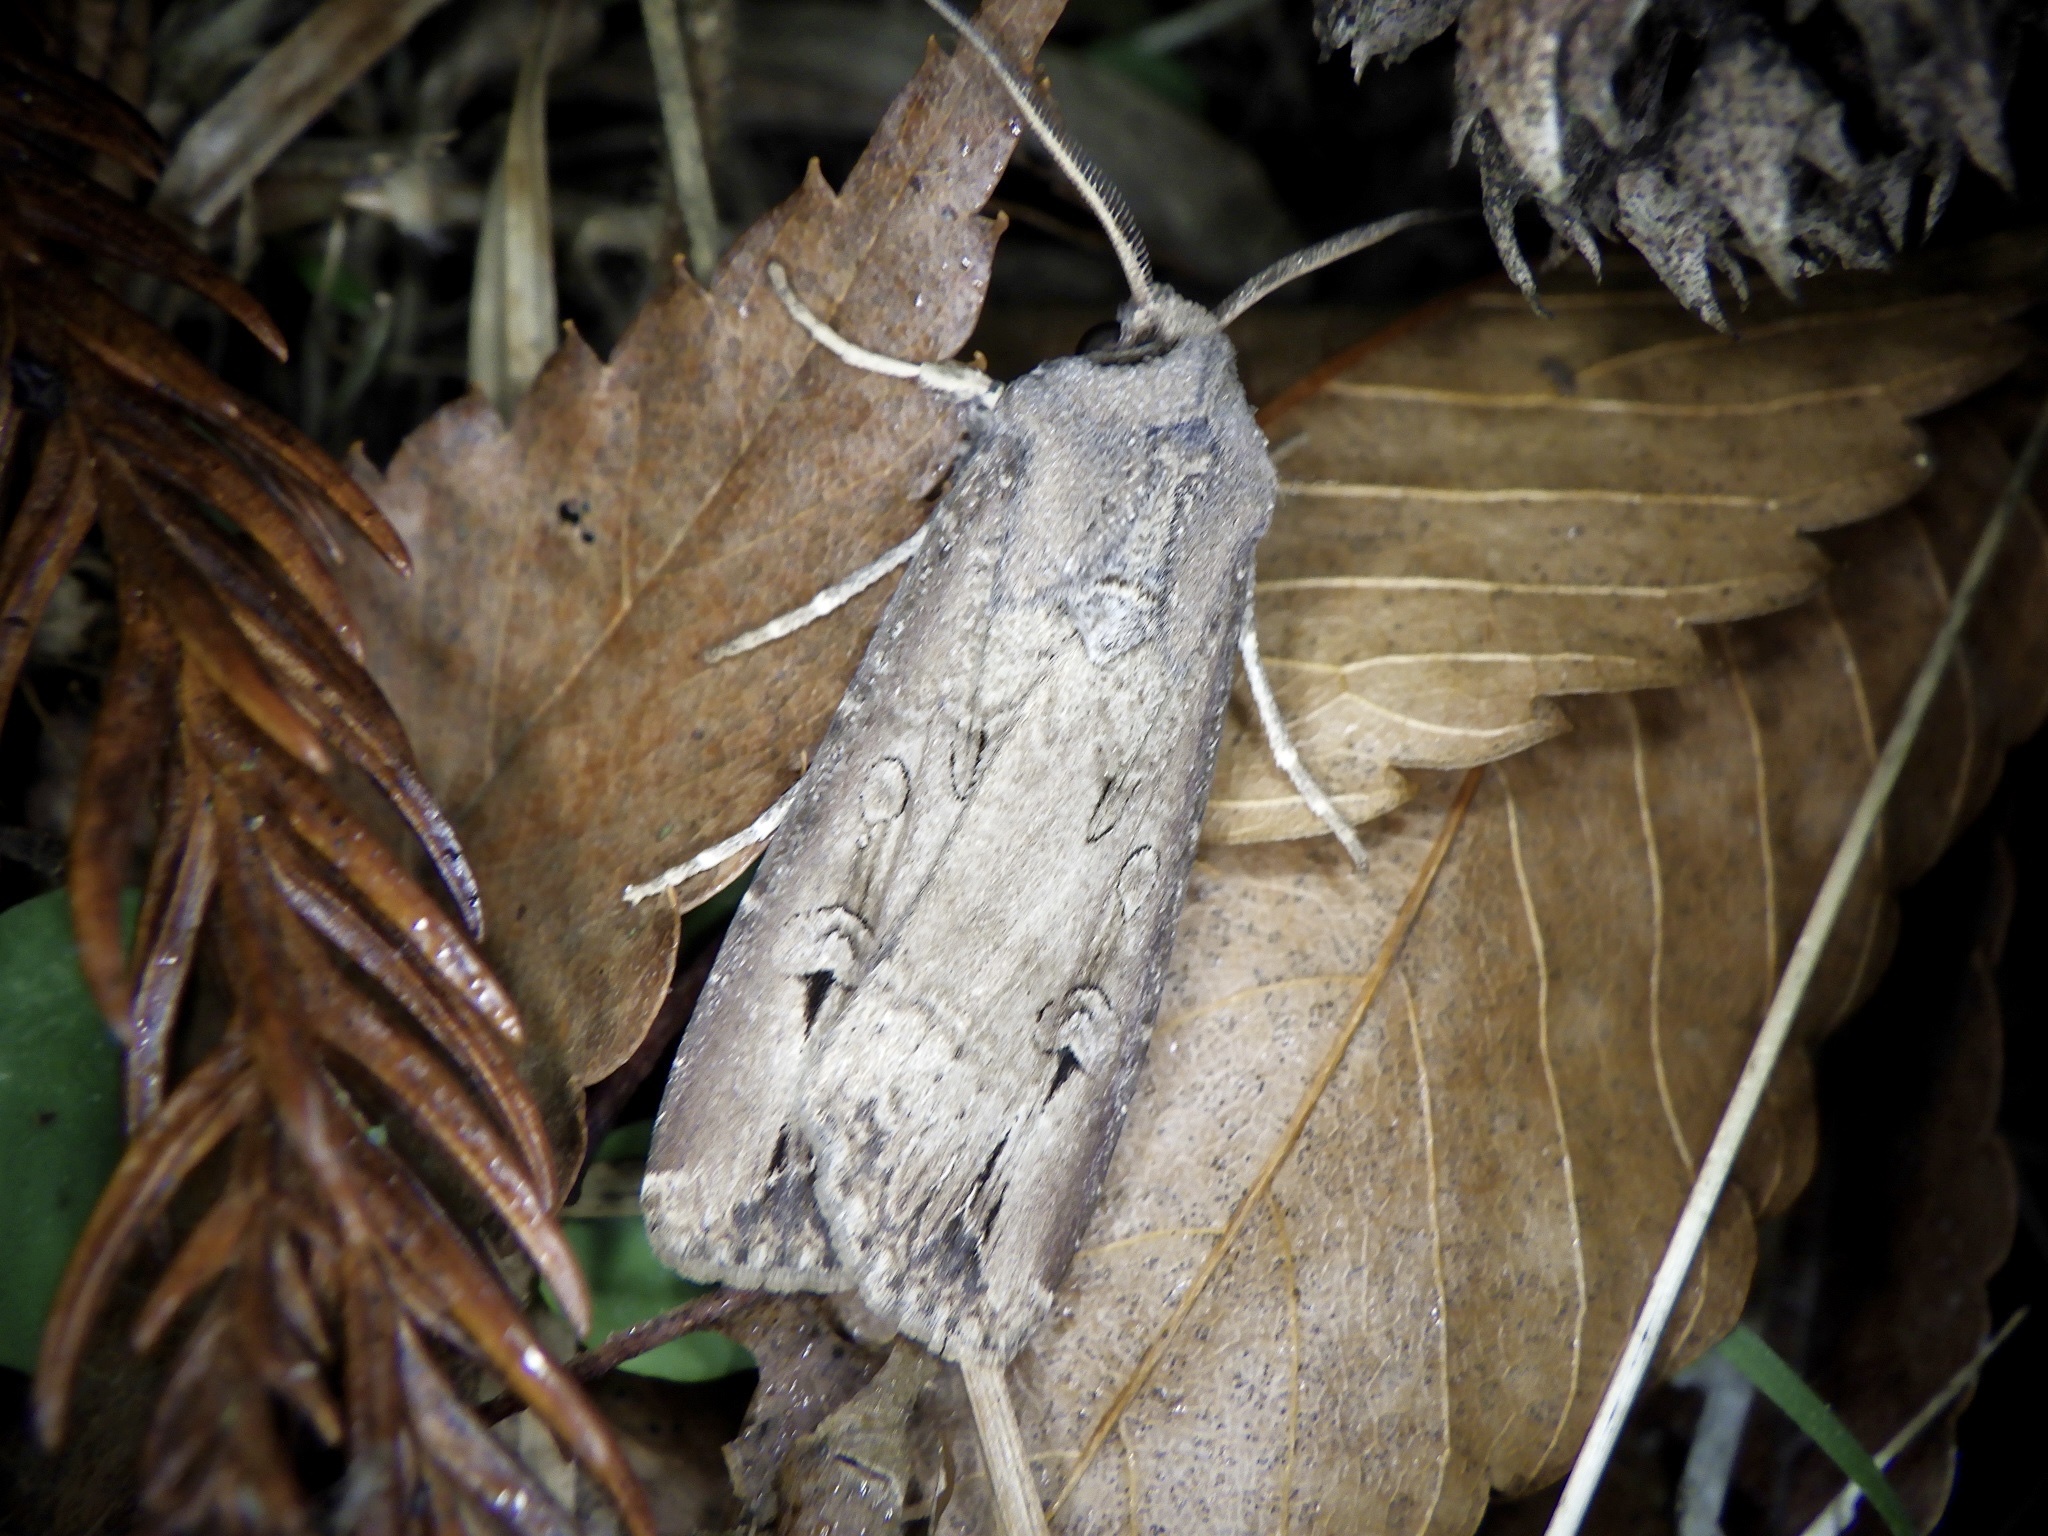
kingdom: Animalia
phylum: Arthropoda
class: Insecta
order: Lepidoptera
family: Noctuidae
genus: Agrotis
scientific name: Agrotis ipsilon
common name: Dark sword-grass
